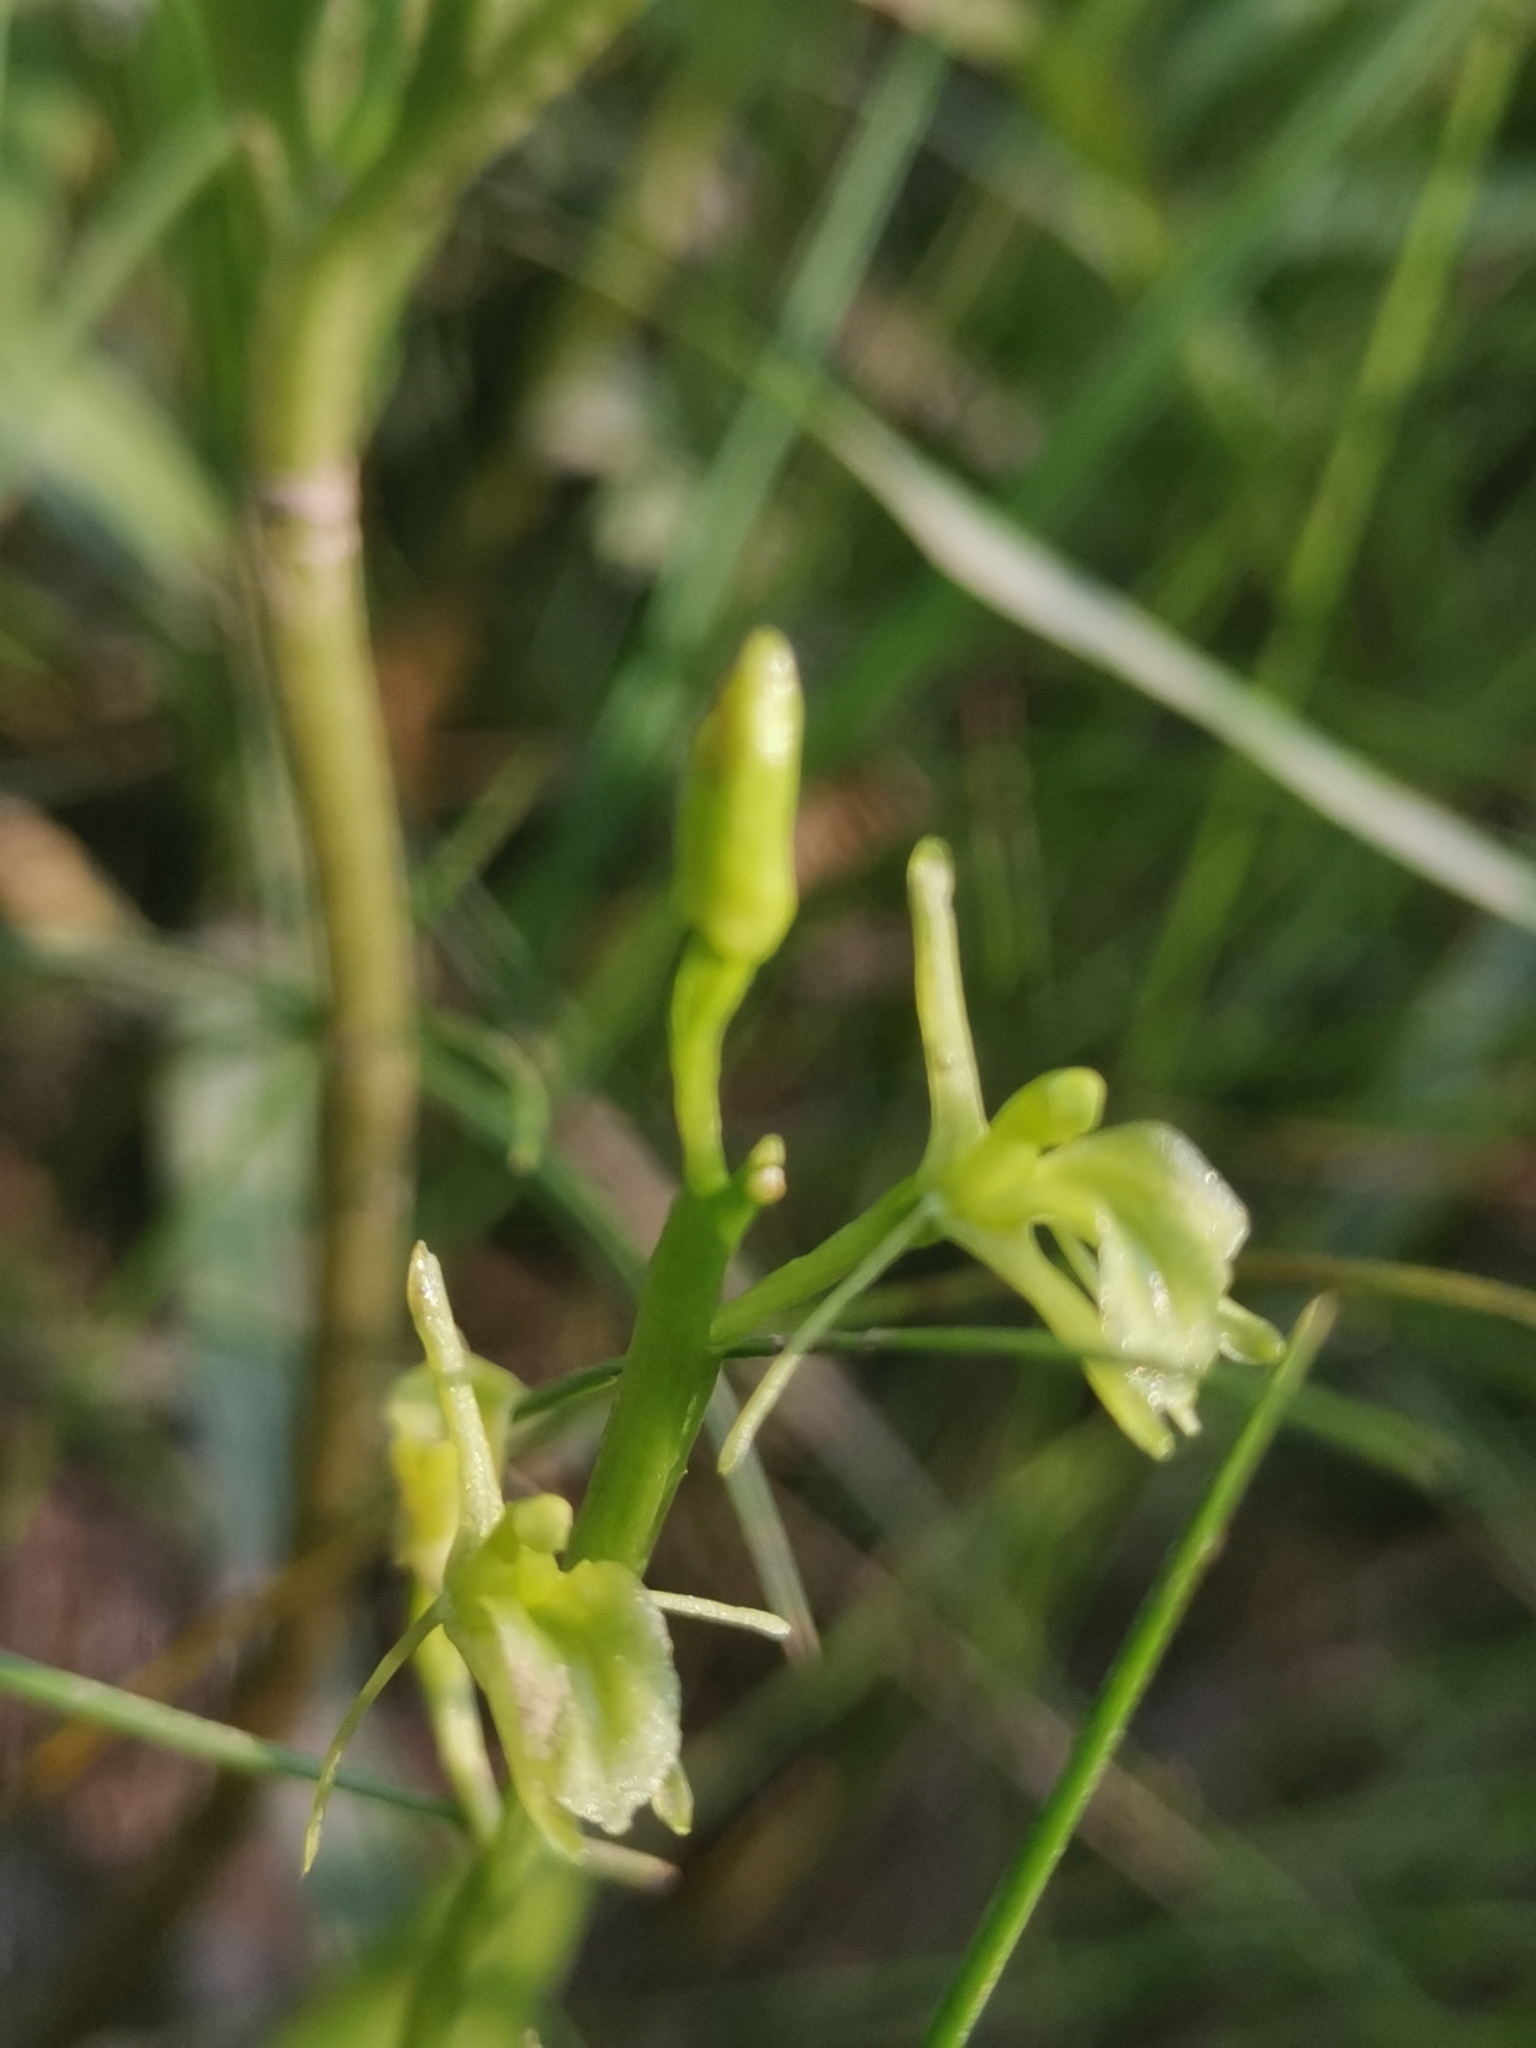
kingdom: Animalia
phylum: Arthropoda
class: Insecta
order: Coleoptera
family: Curculionidae
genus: Liparis
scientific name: Liparis loeselii
